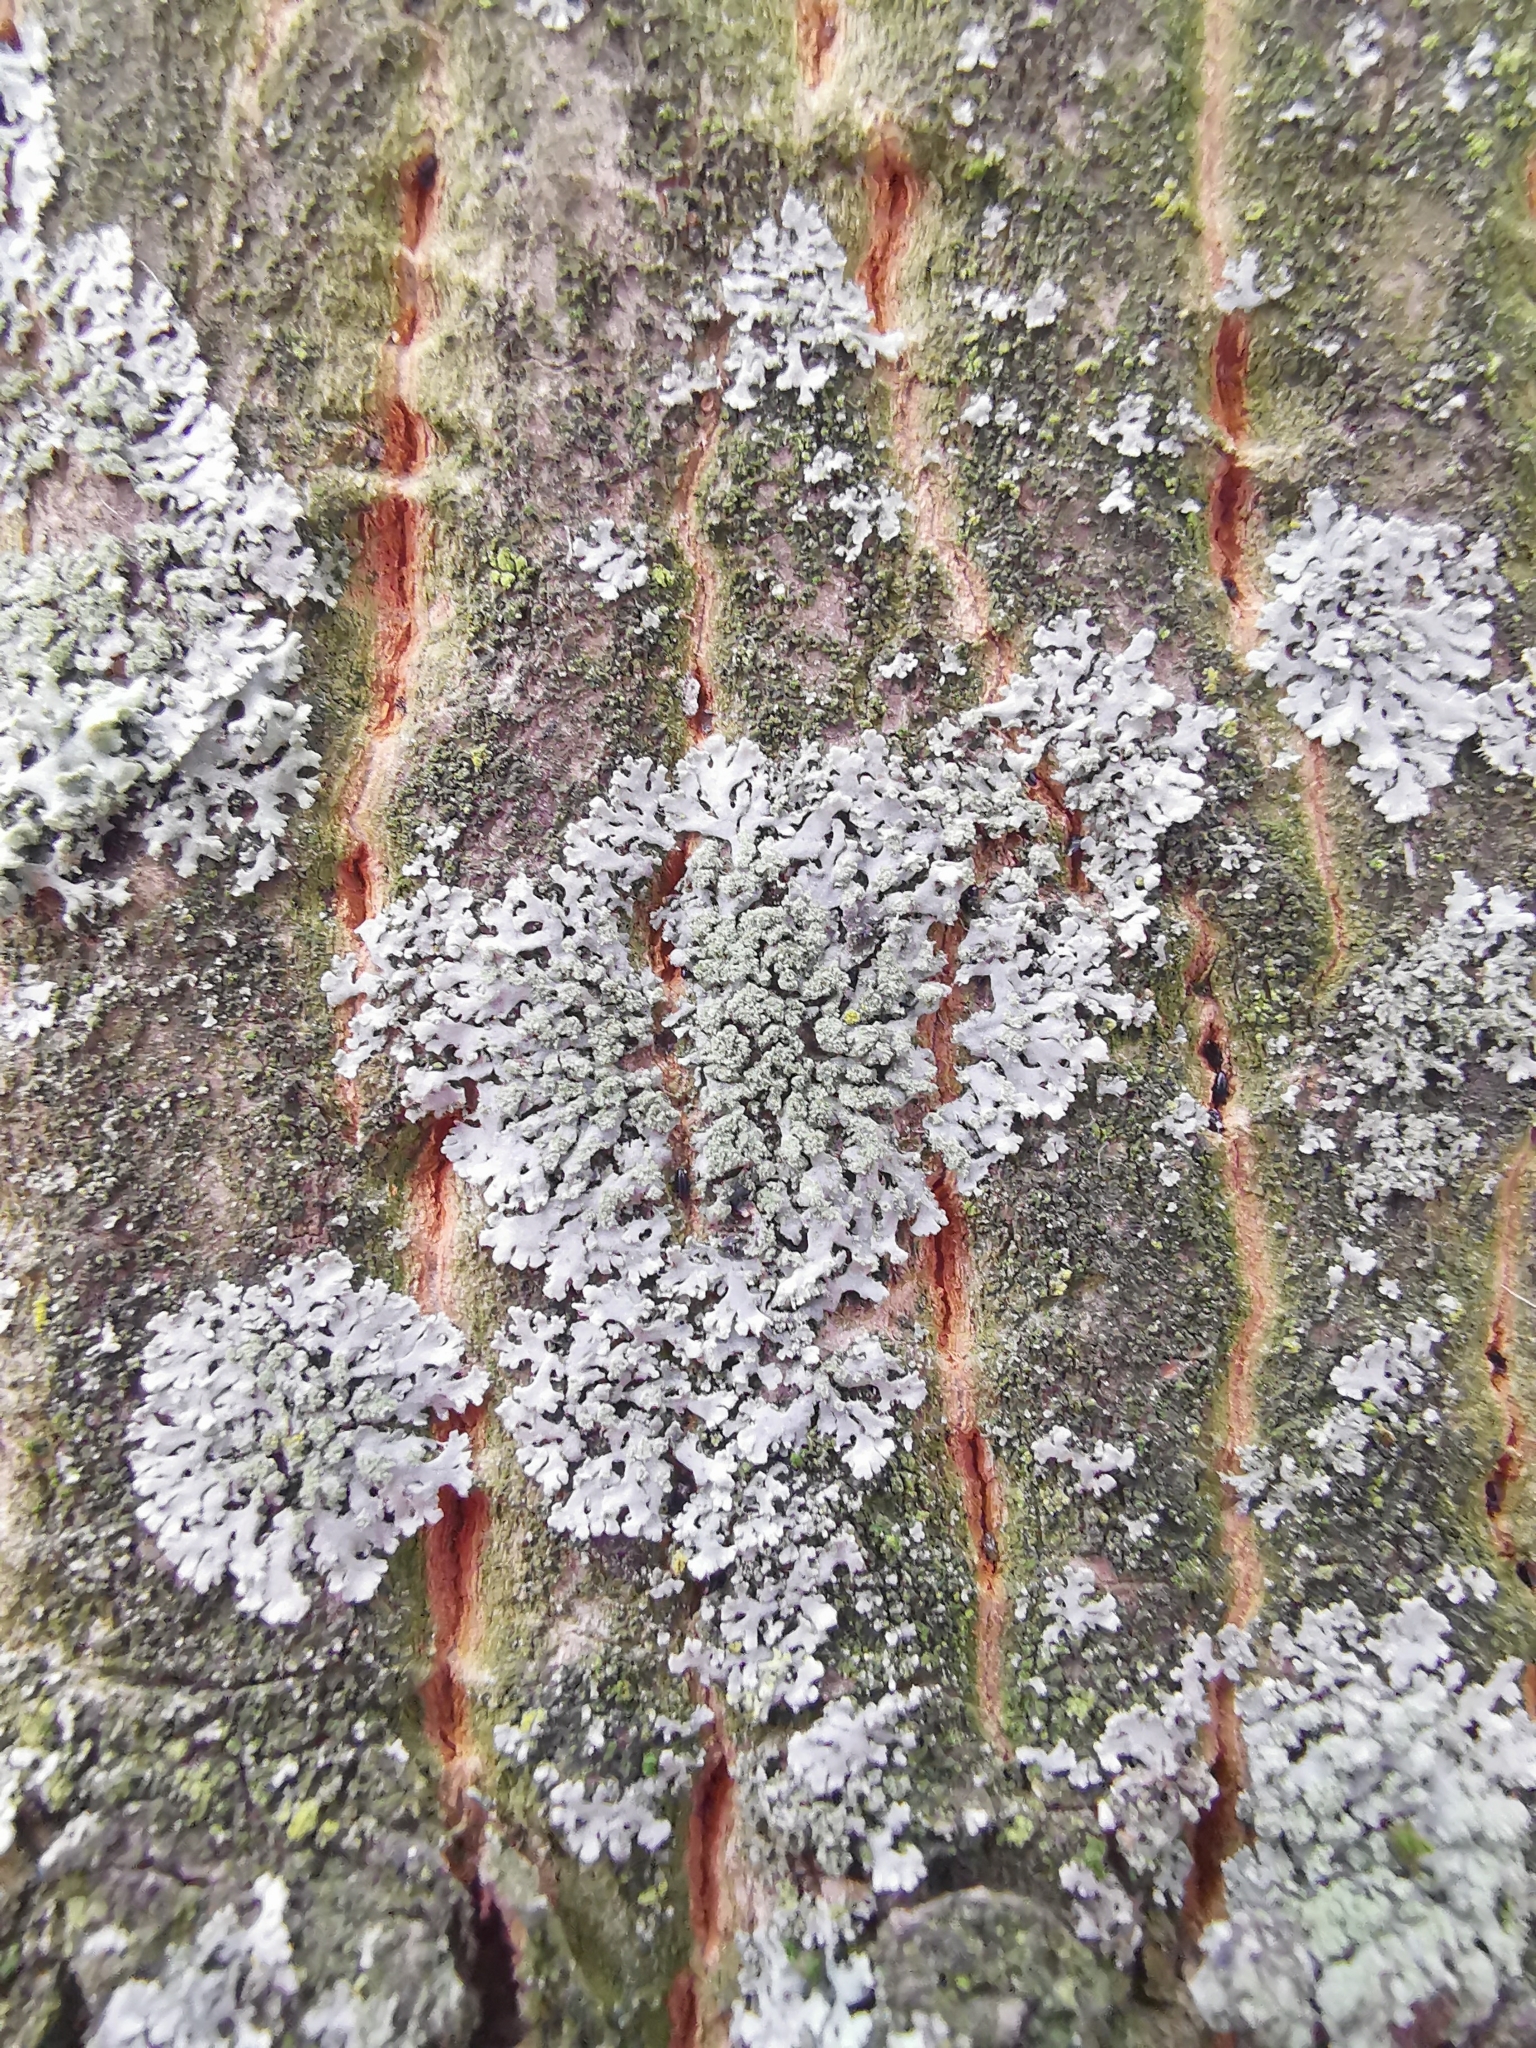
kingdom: Fungi
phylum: Ascomycota
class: Lecanoromycetes
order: Caliciales
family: Physciaceae
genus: Phaeophyscia
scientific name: Phaeophyscia orbicularis
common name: Mealy shadow lichen
